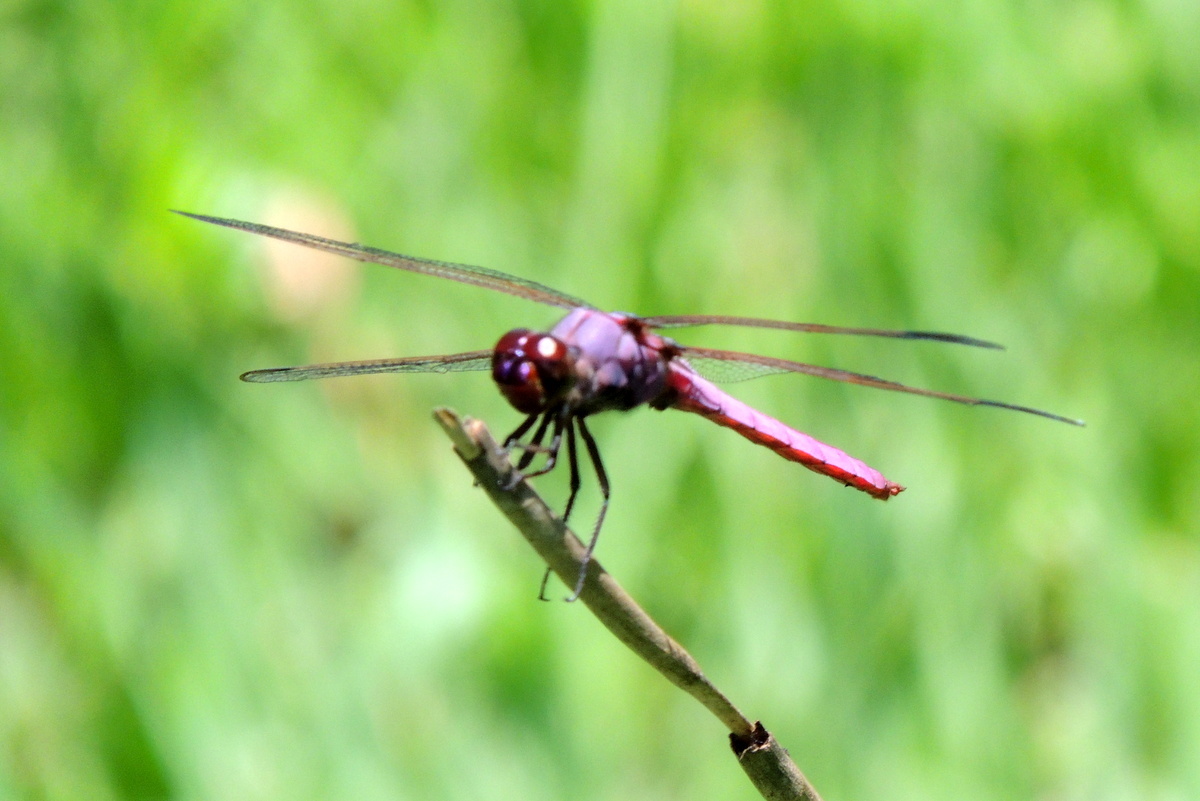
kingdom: Animalia
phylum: Arthropoda
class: Insecta
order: Odonata
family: Libellulidae
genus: Orthemis
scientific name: Orthemis ferruginea
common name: Roseate skimmer
